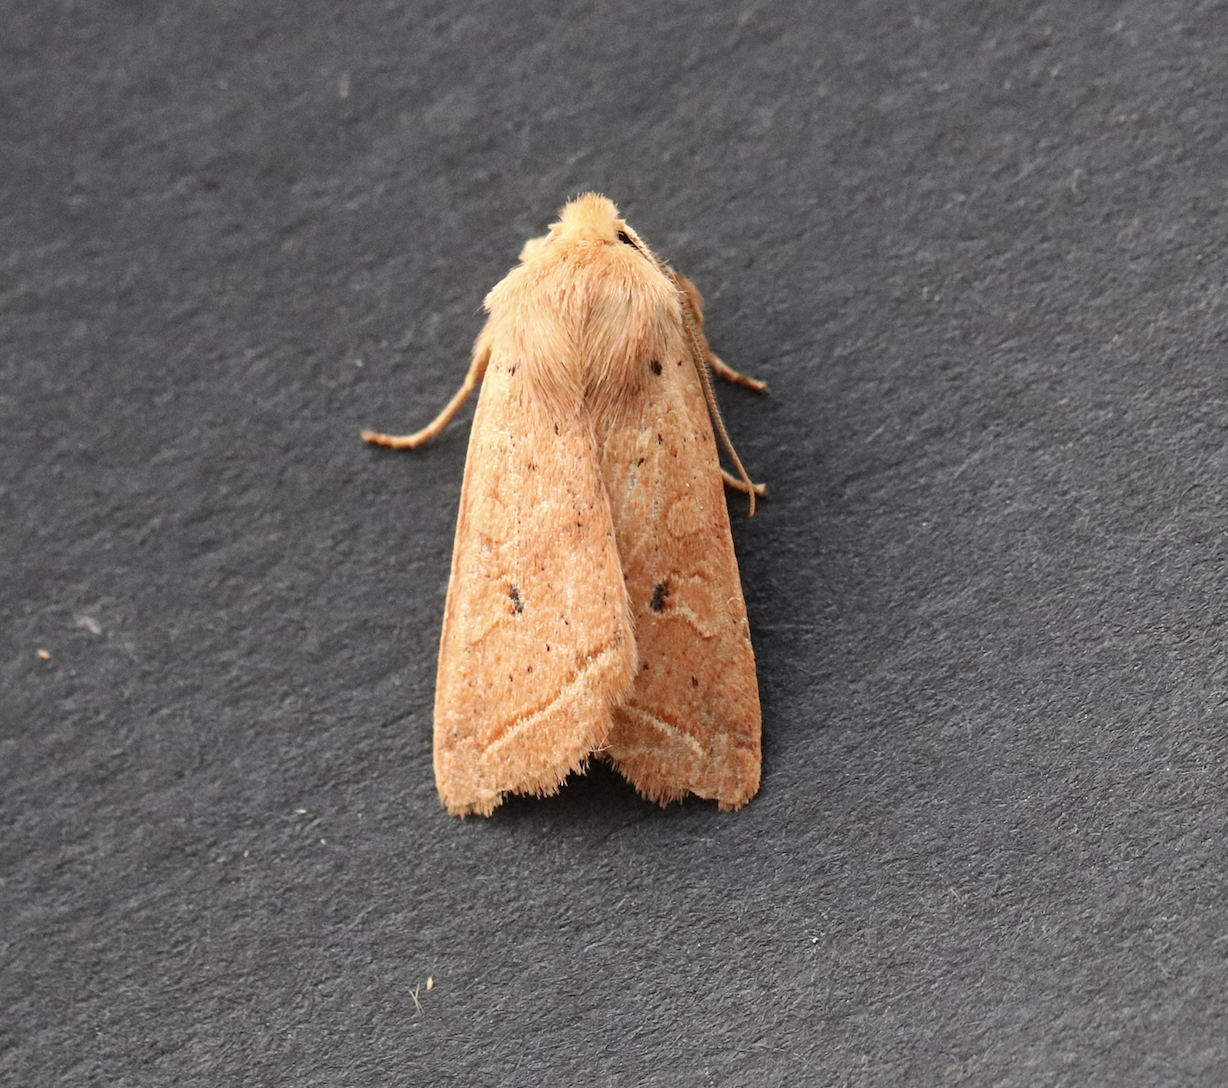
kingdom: Animalia
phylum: Arthropoda
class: Insecta
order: Lepidoptera
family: Noctuidae
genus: Agrochola
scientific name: Agrochola macilenta
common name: Yellow-line quaker
